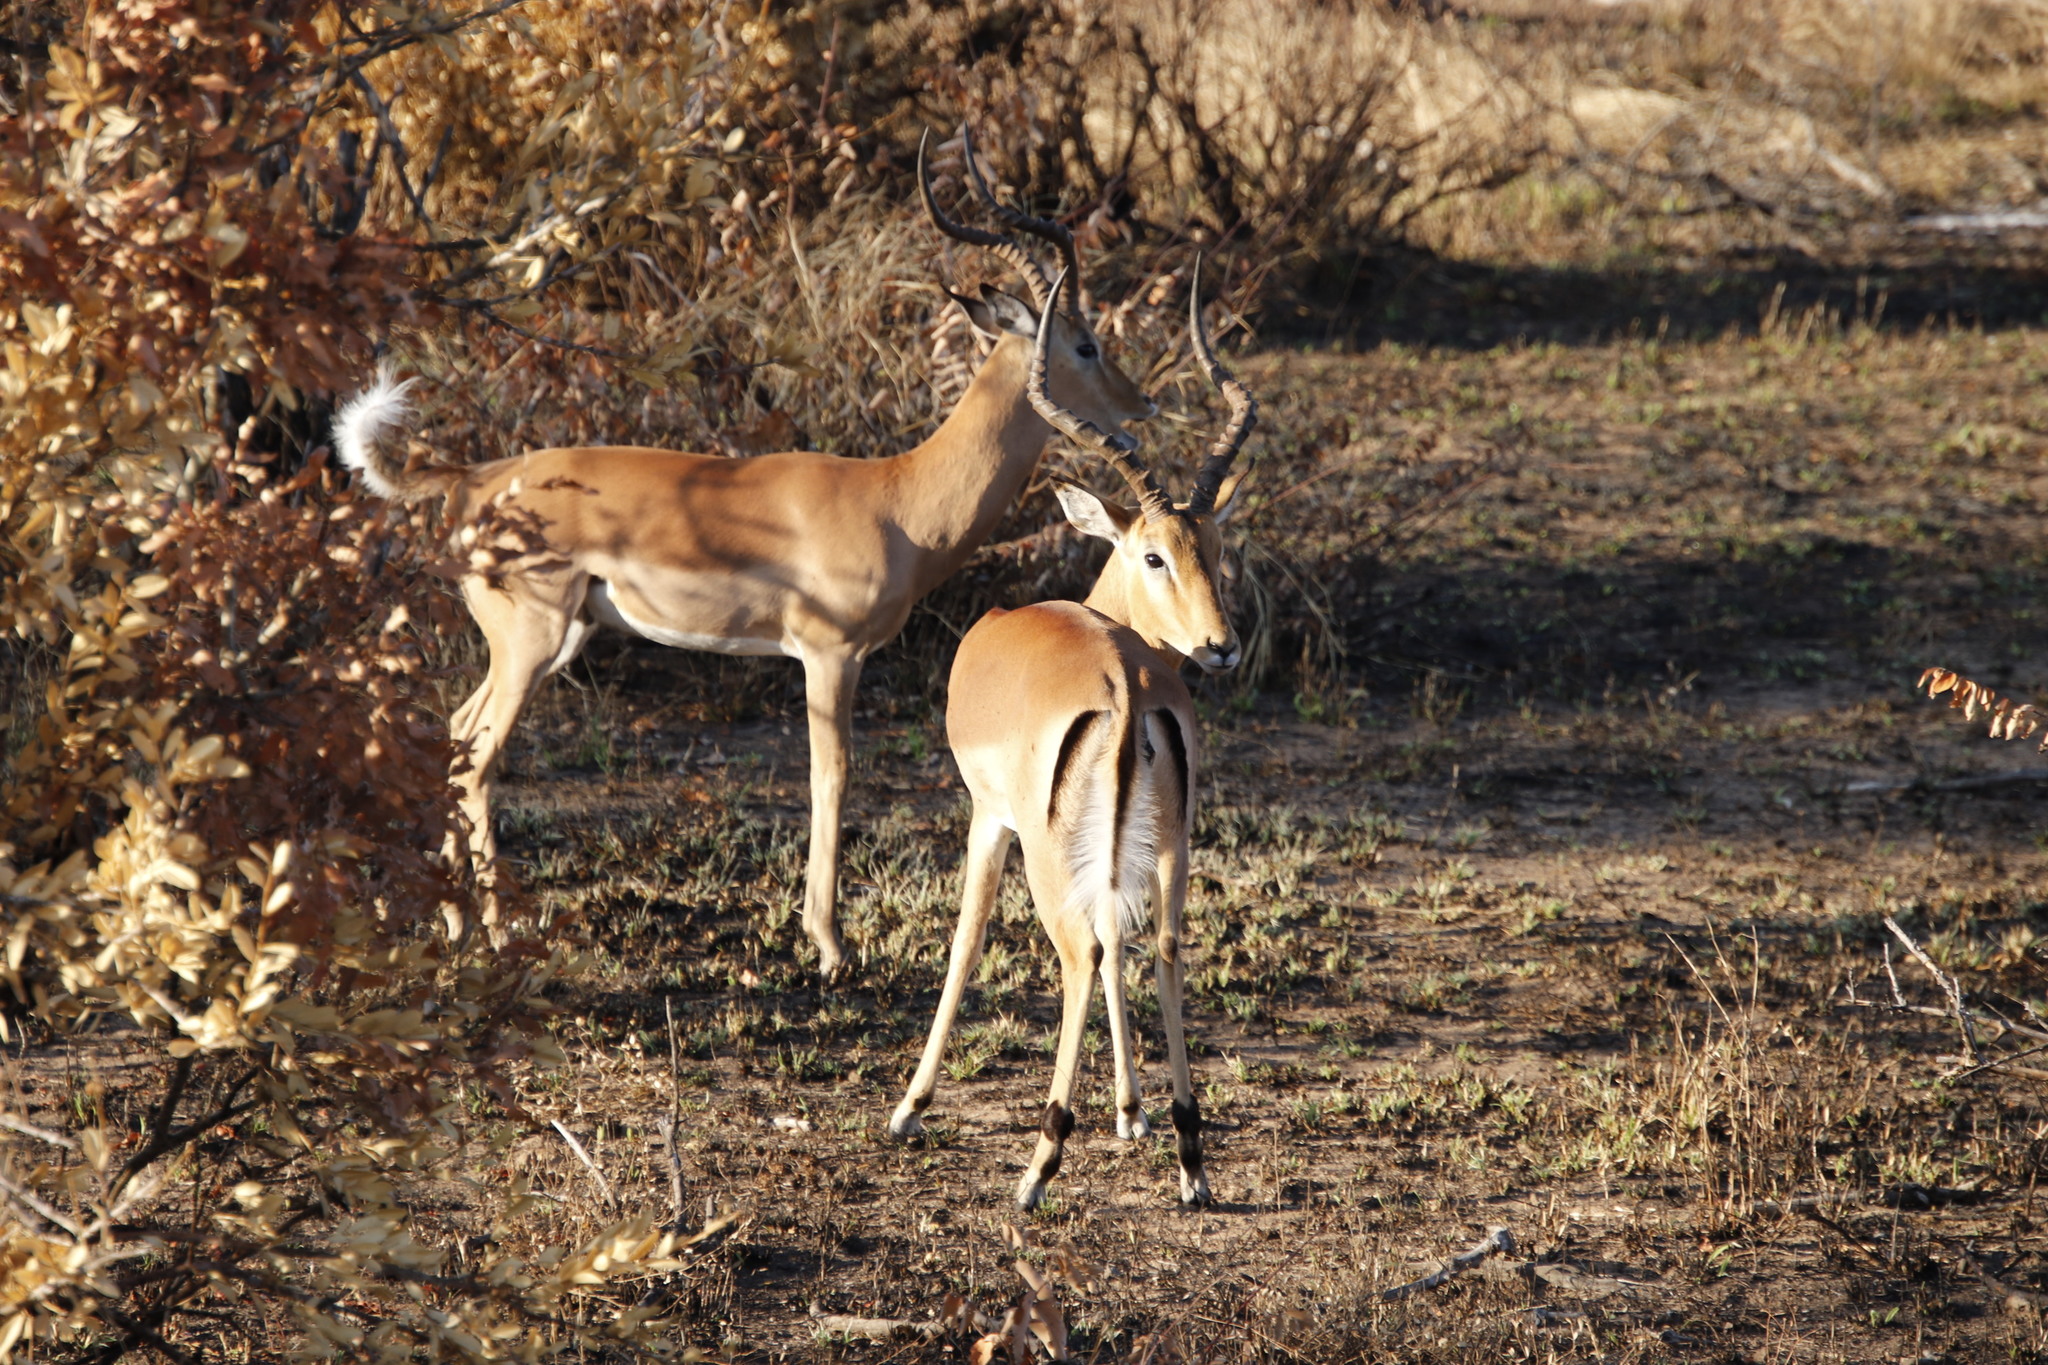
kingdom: Animalia
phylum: Chordata
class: Mammalia
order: Artiodactyla
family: Bovidae
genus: Aepyceros
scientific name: Aepyceros melampus
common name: Impala
